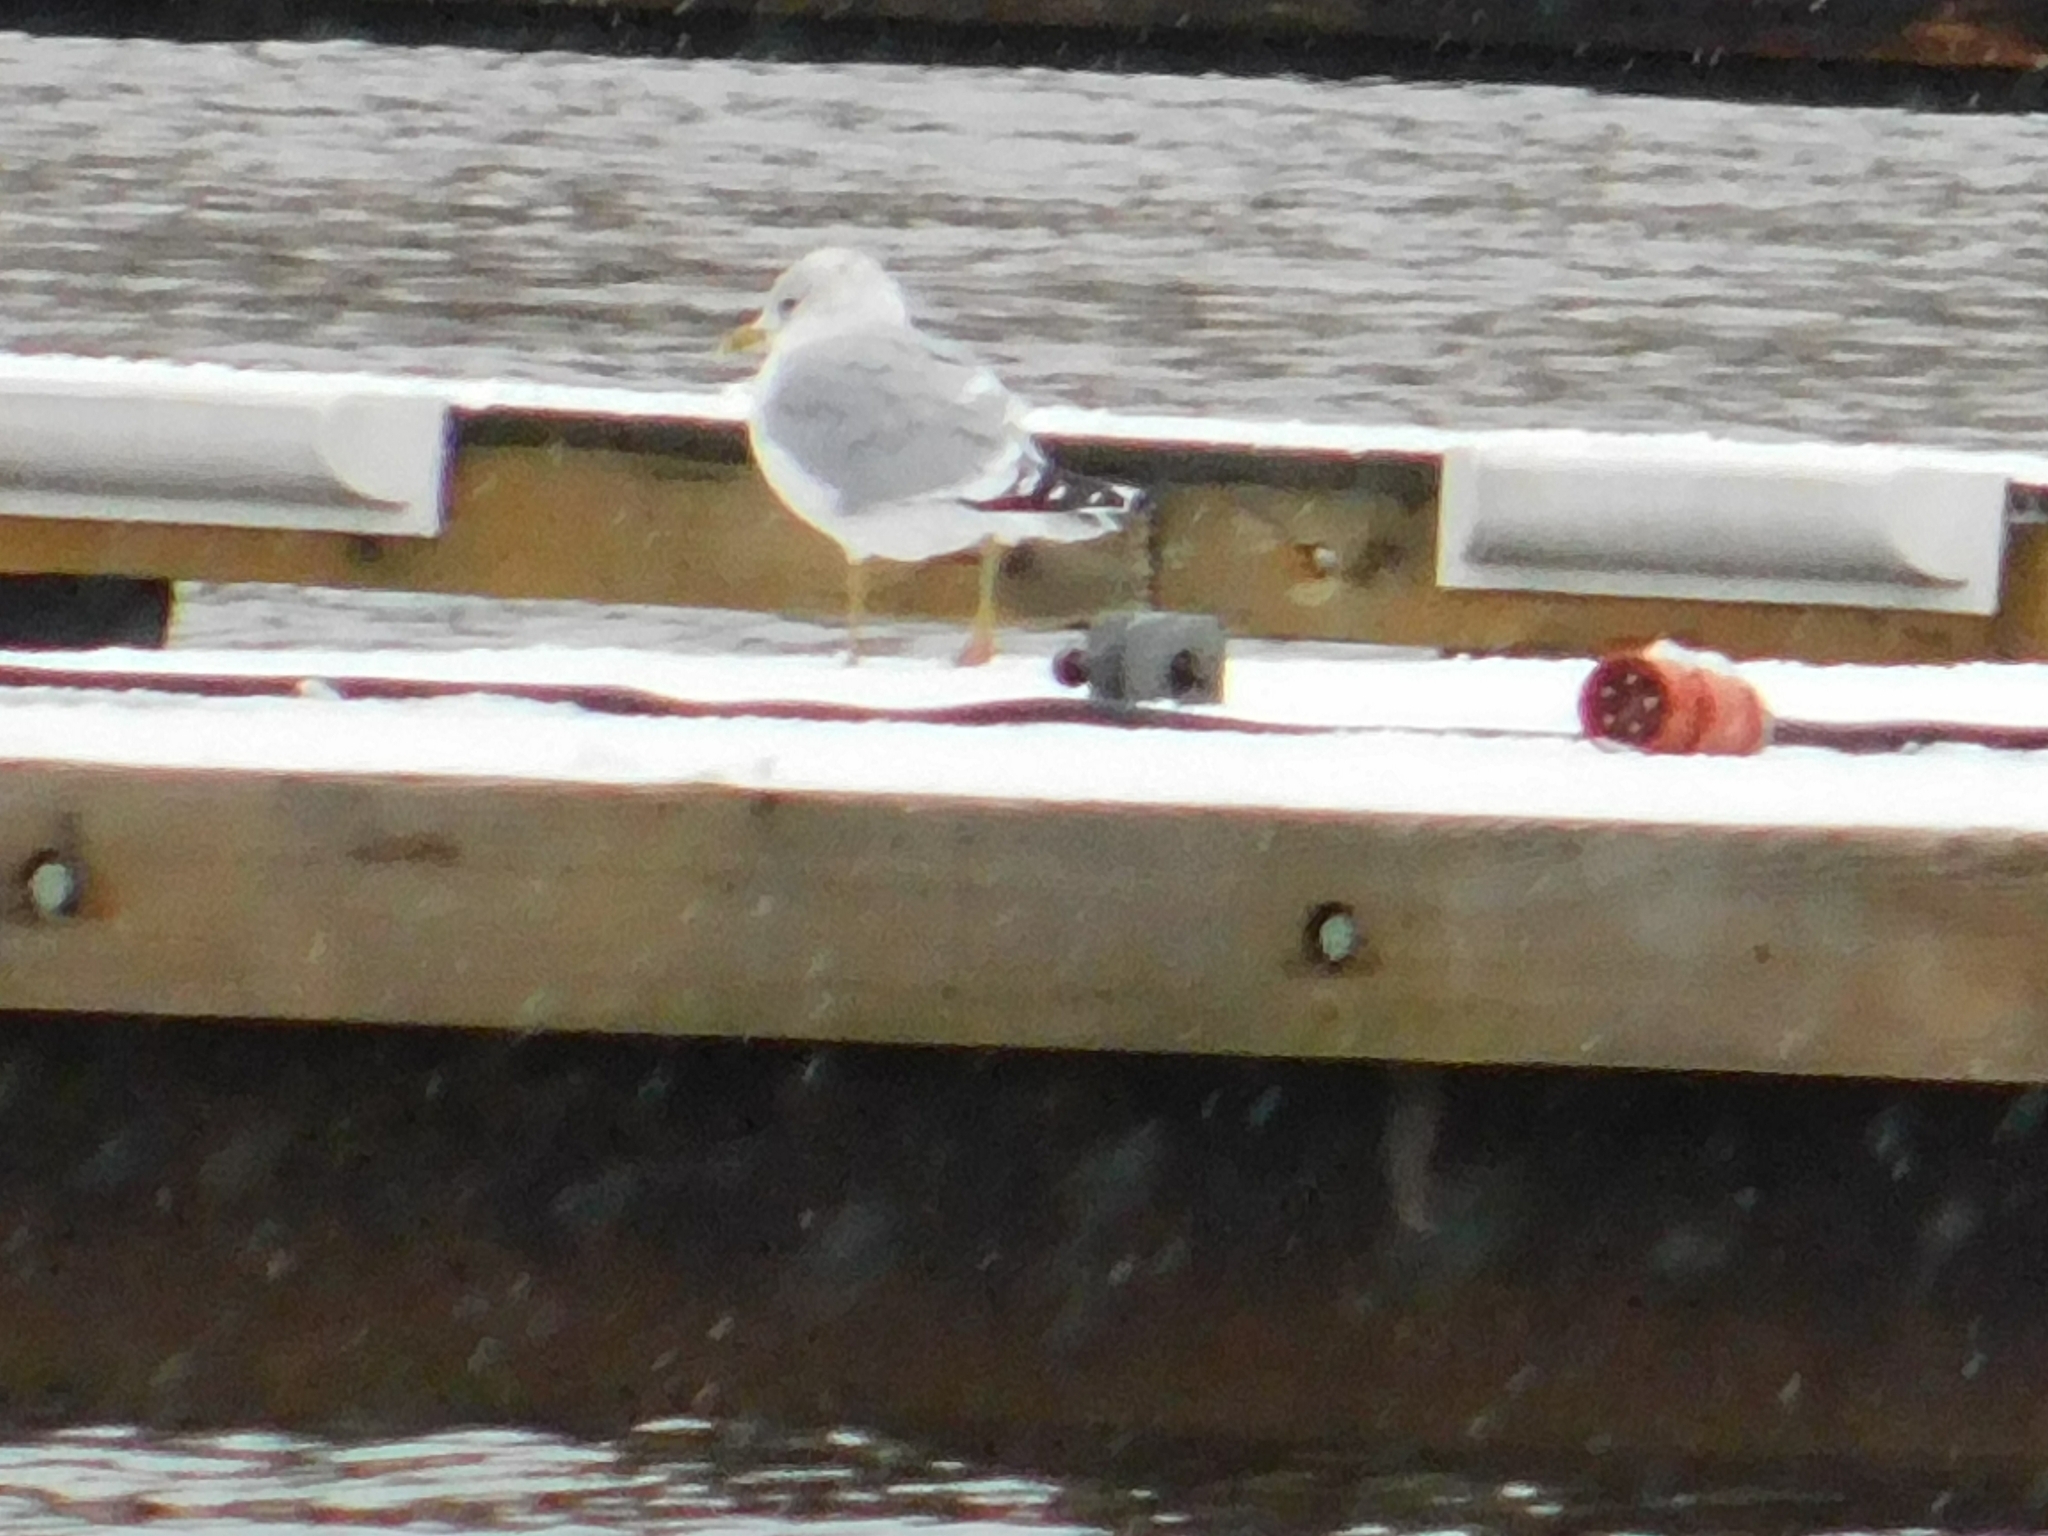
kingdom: Animalia
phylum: Chordata
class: Aves
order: Charadriiformes
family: Laridae
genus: Larus
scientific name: Larus canus
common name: Mew gull
